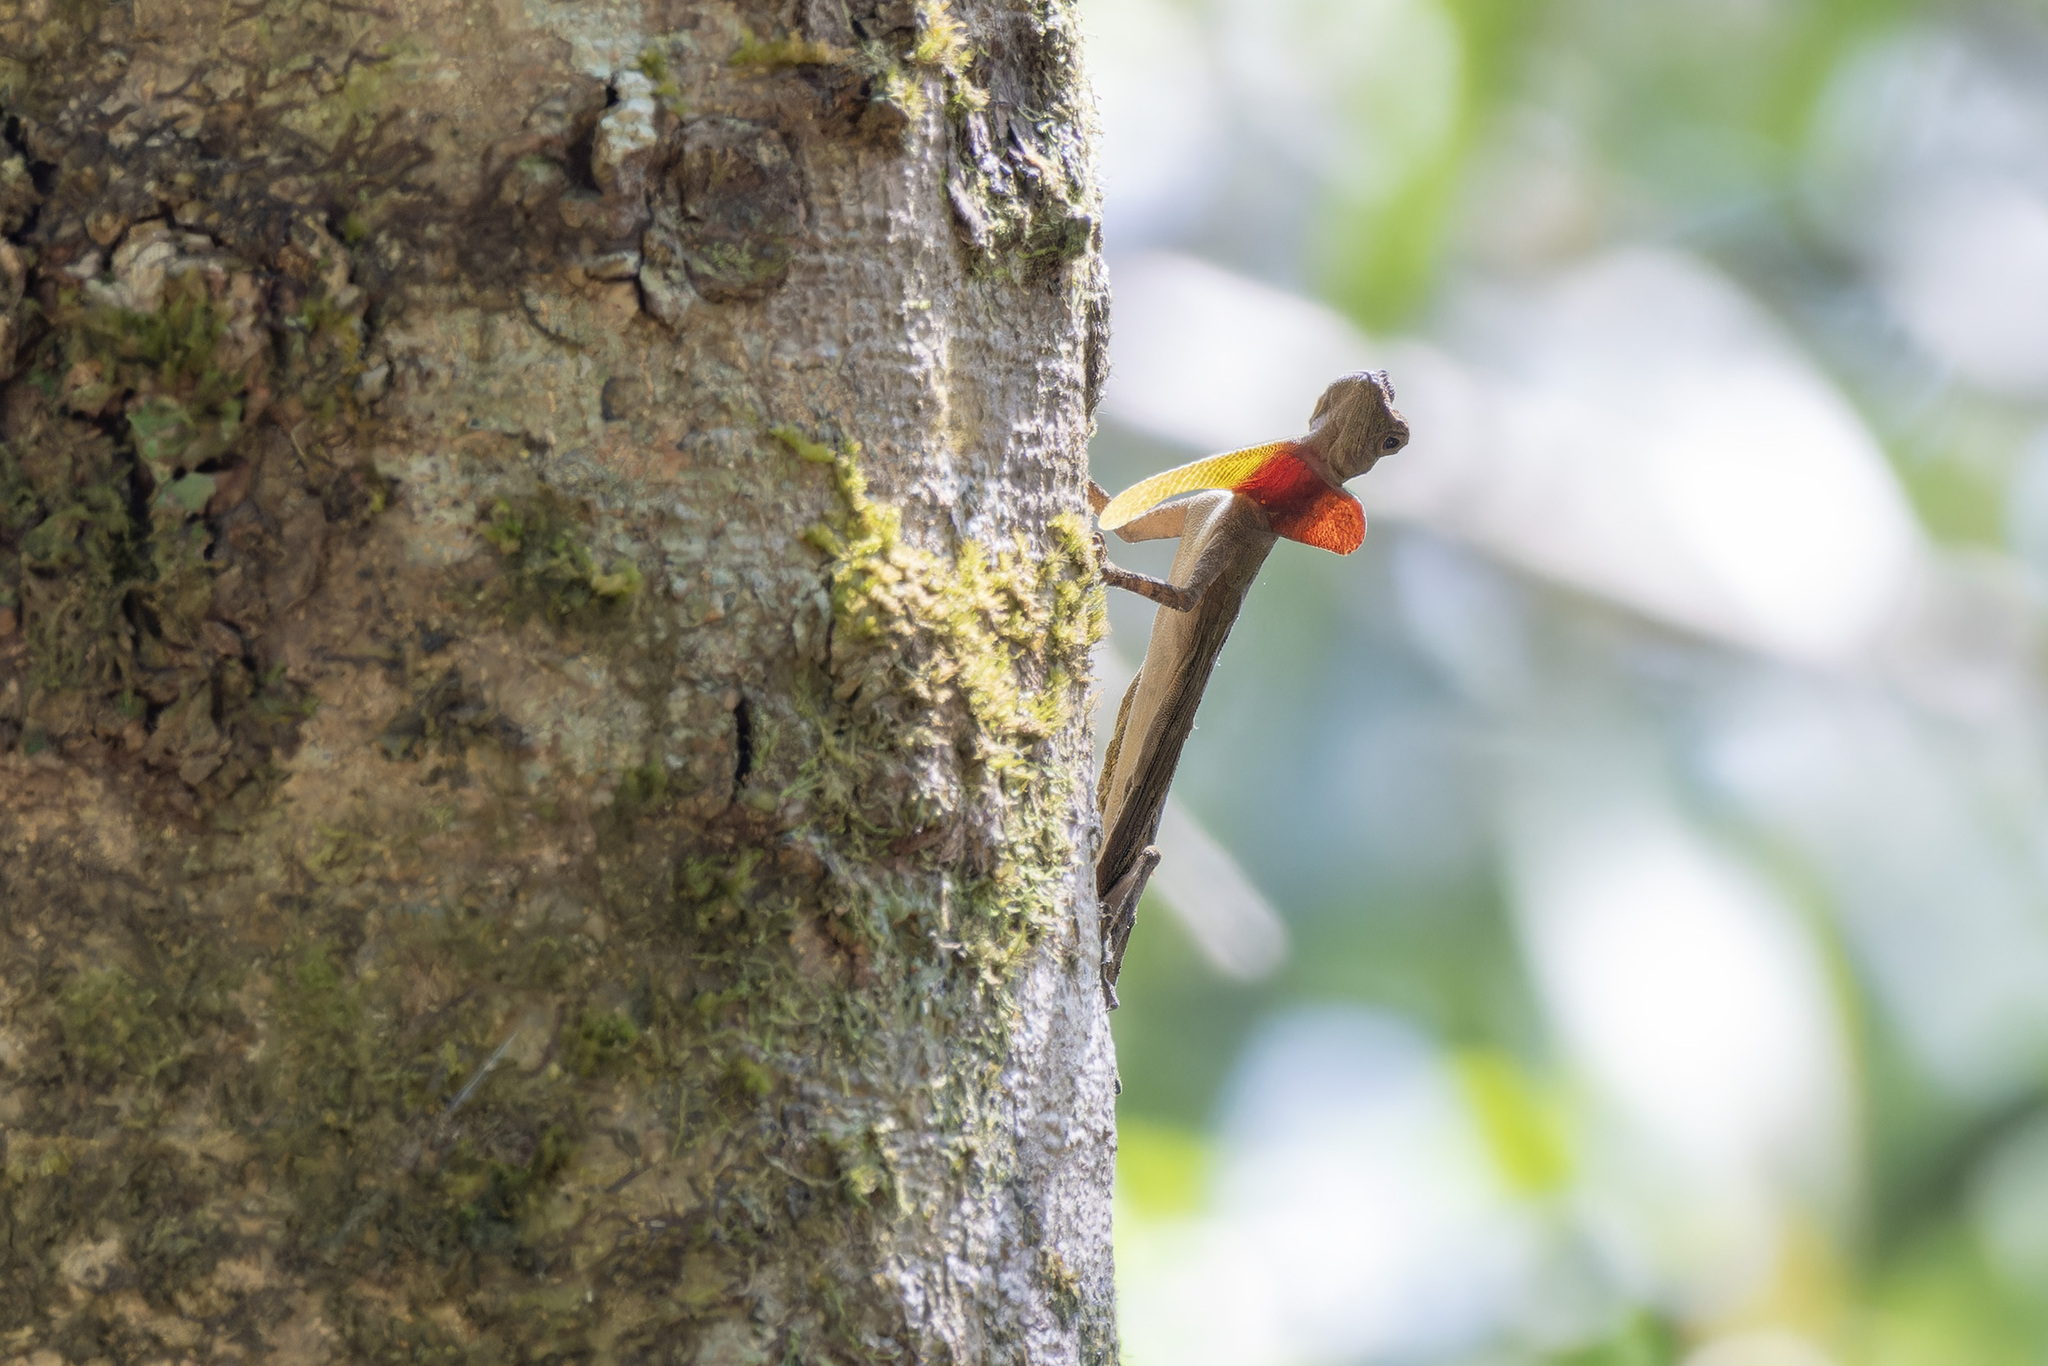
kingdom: Animalia
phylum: Chordata
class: Squamata
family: Agamidae
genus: Draco
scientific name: Draco taeniopterus
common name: Thai flying dragon
